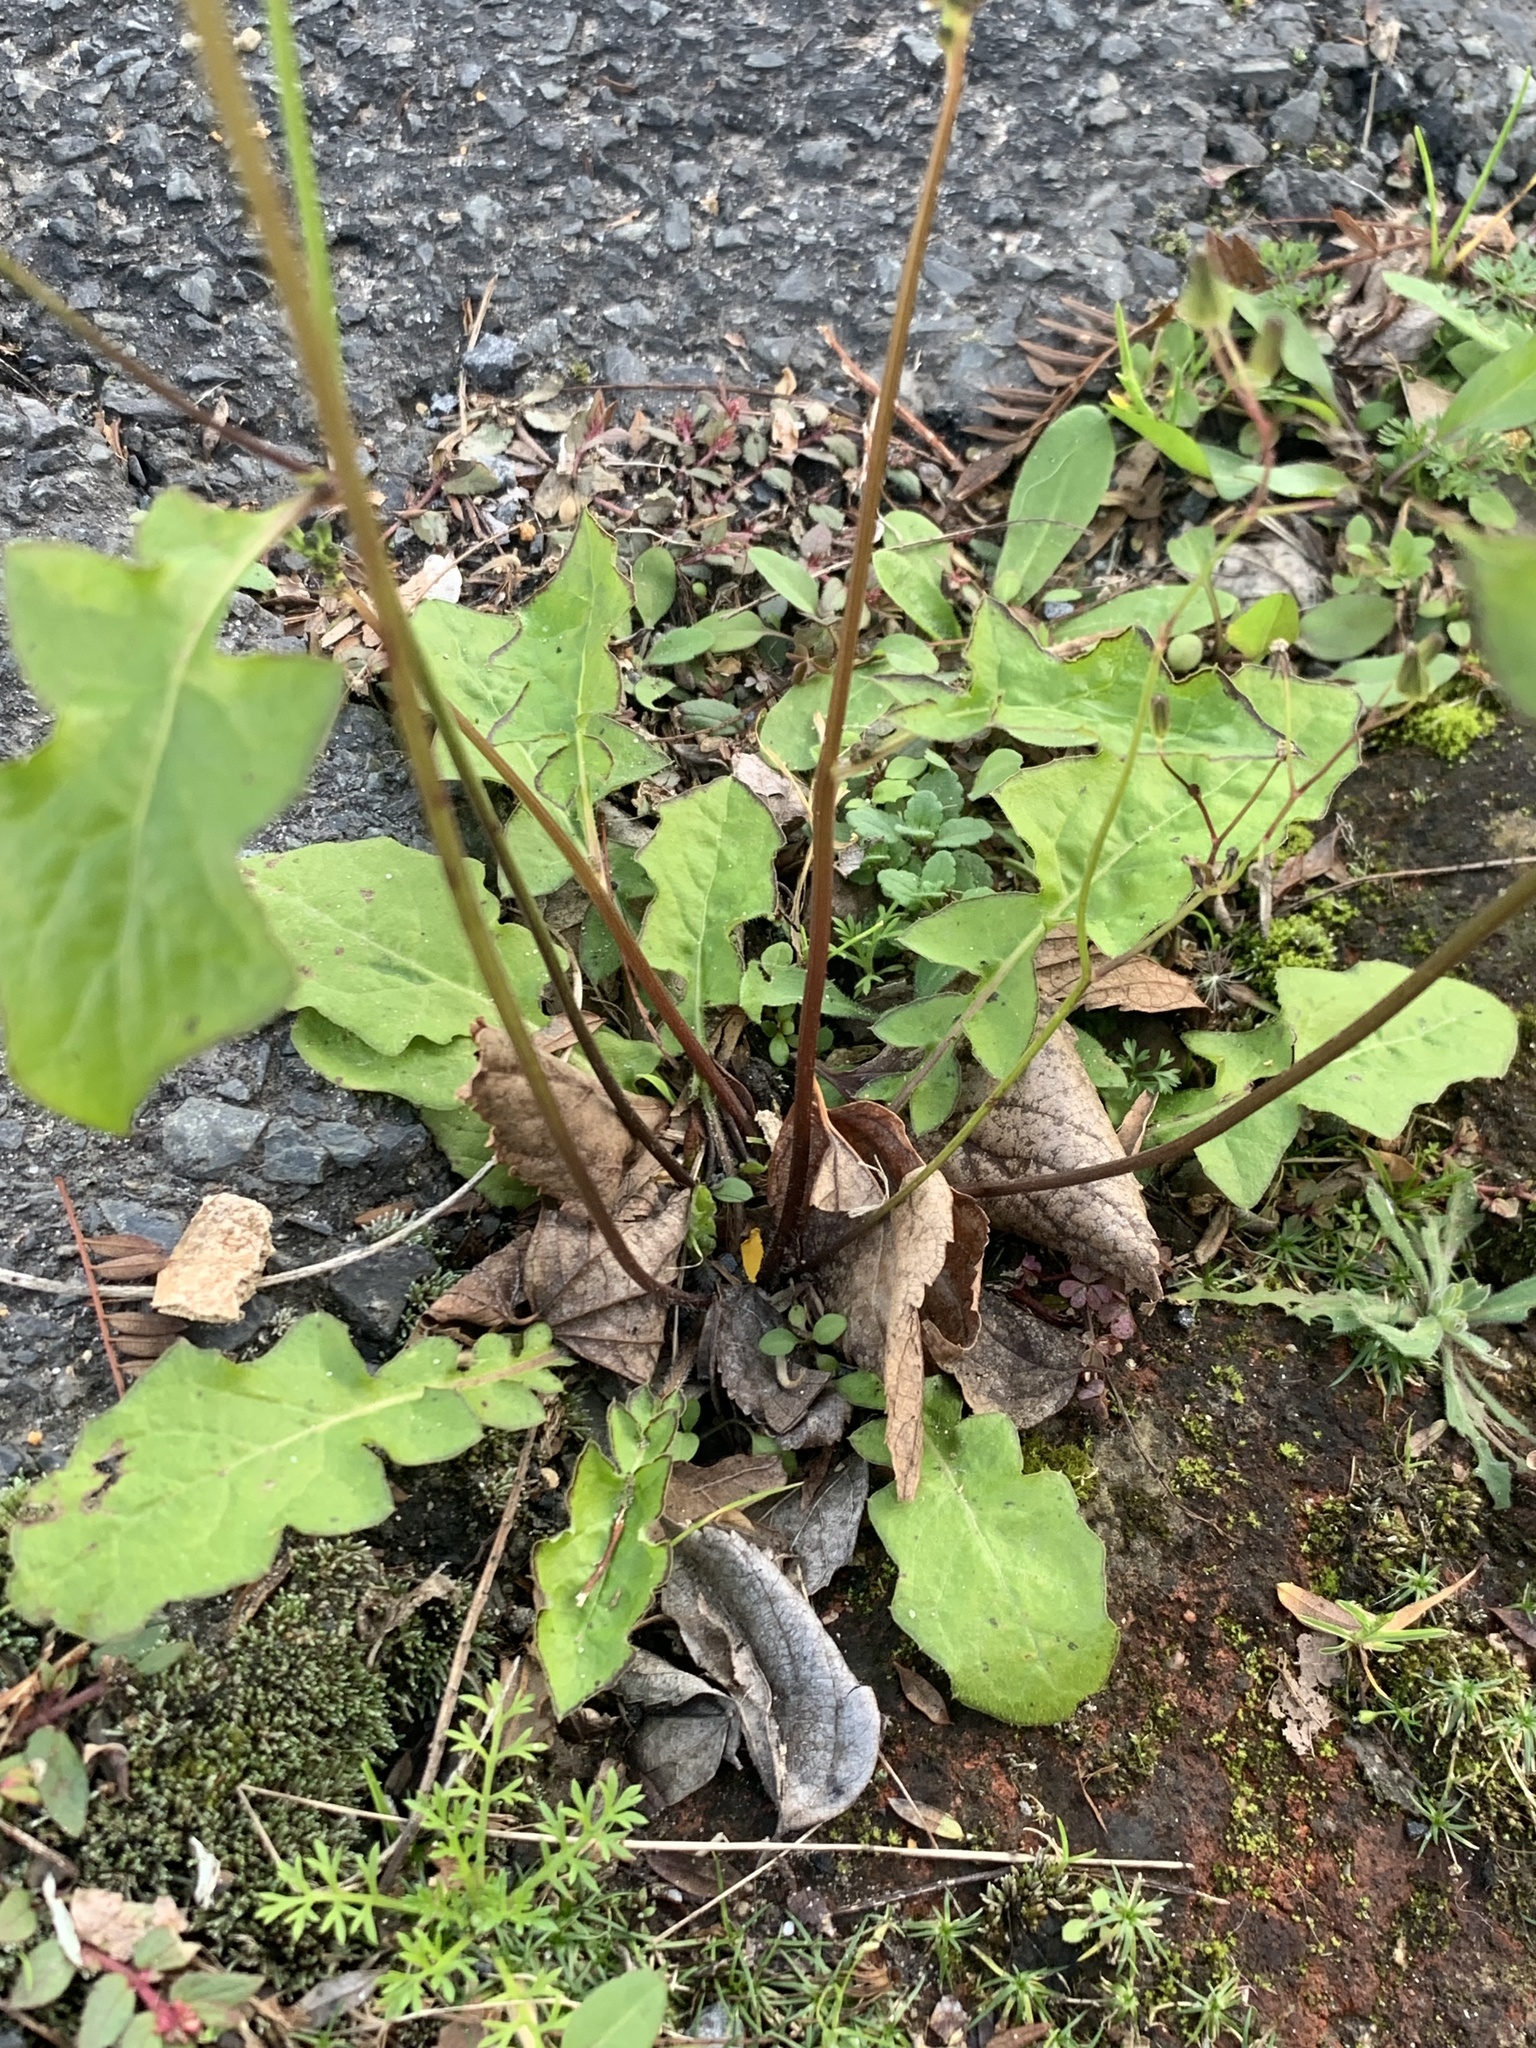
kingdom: Plantae
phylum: Tracheophyta
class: Magnoliopsida
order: Asterales
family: Asteraceae
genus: Youngia
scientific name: Youngia japonica
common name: Oriental false hawksbeard
